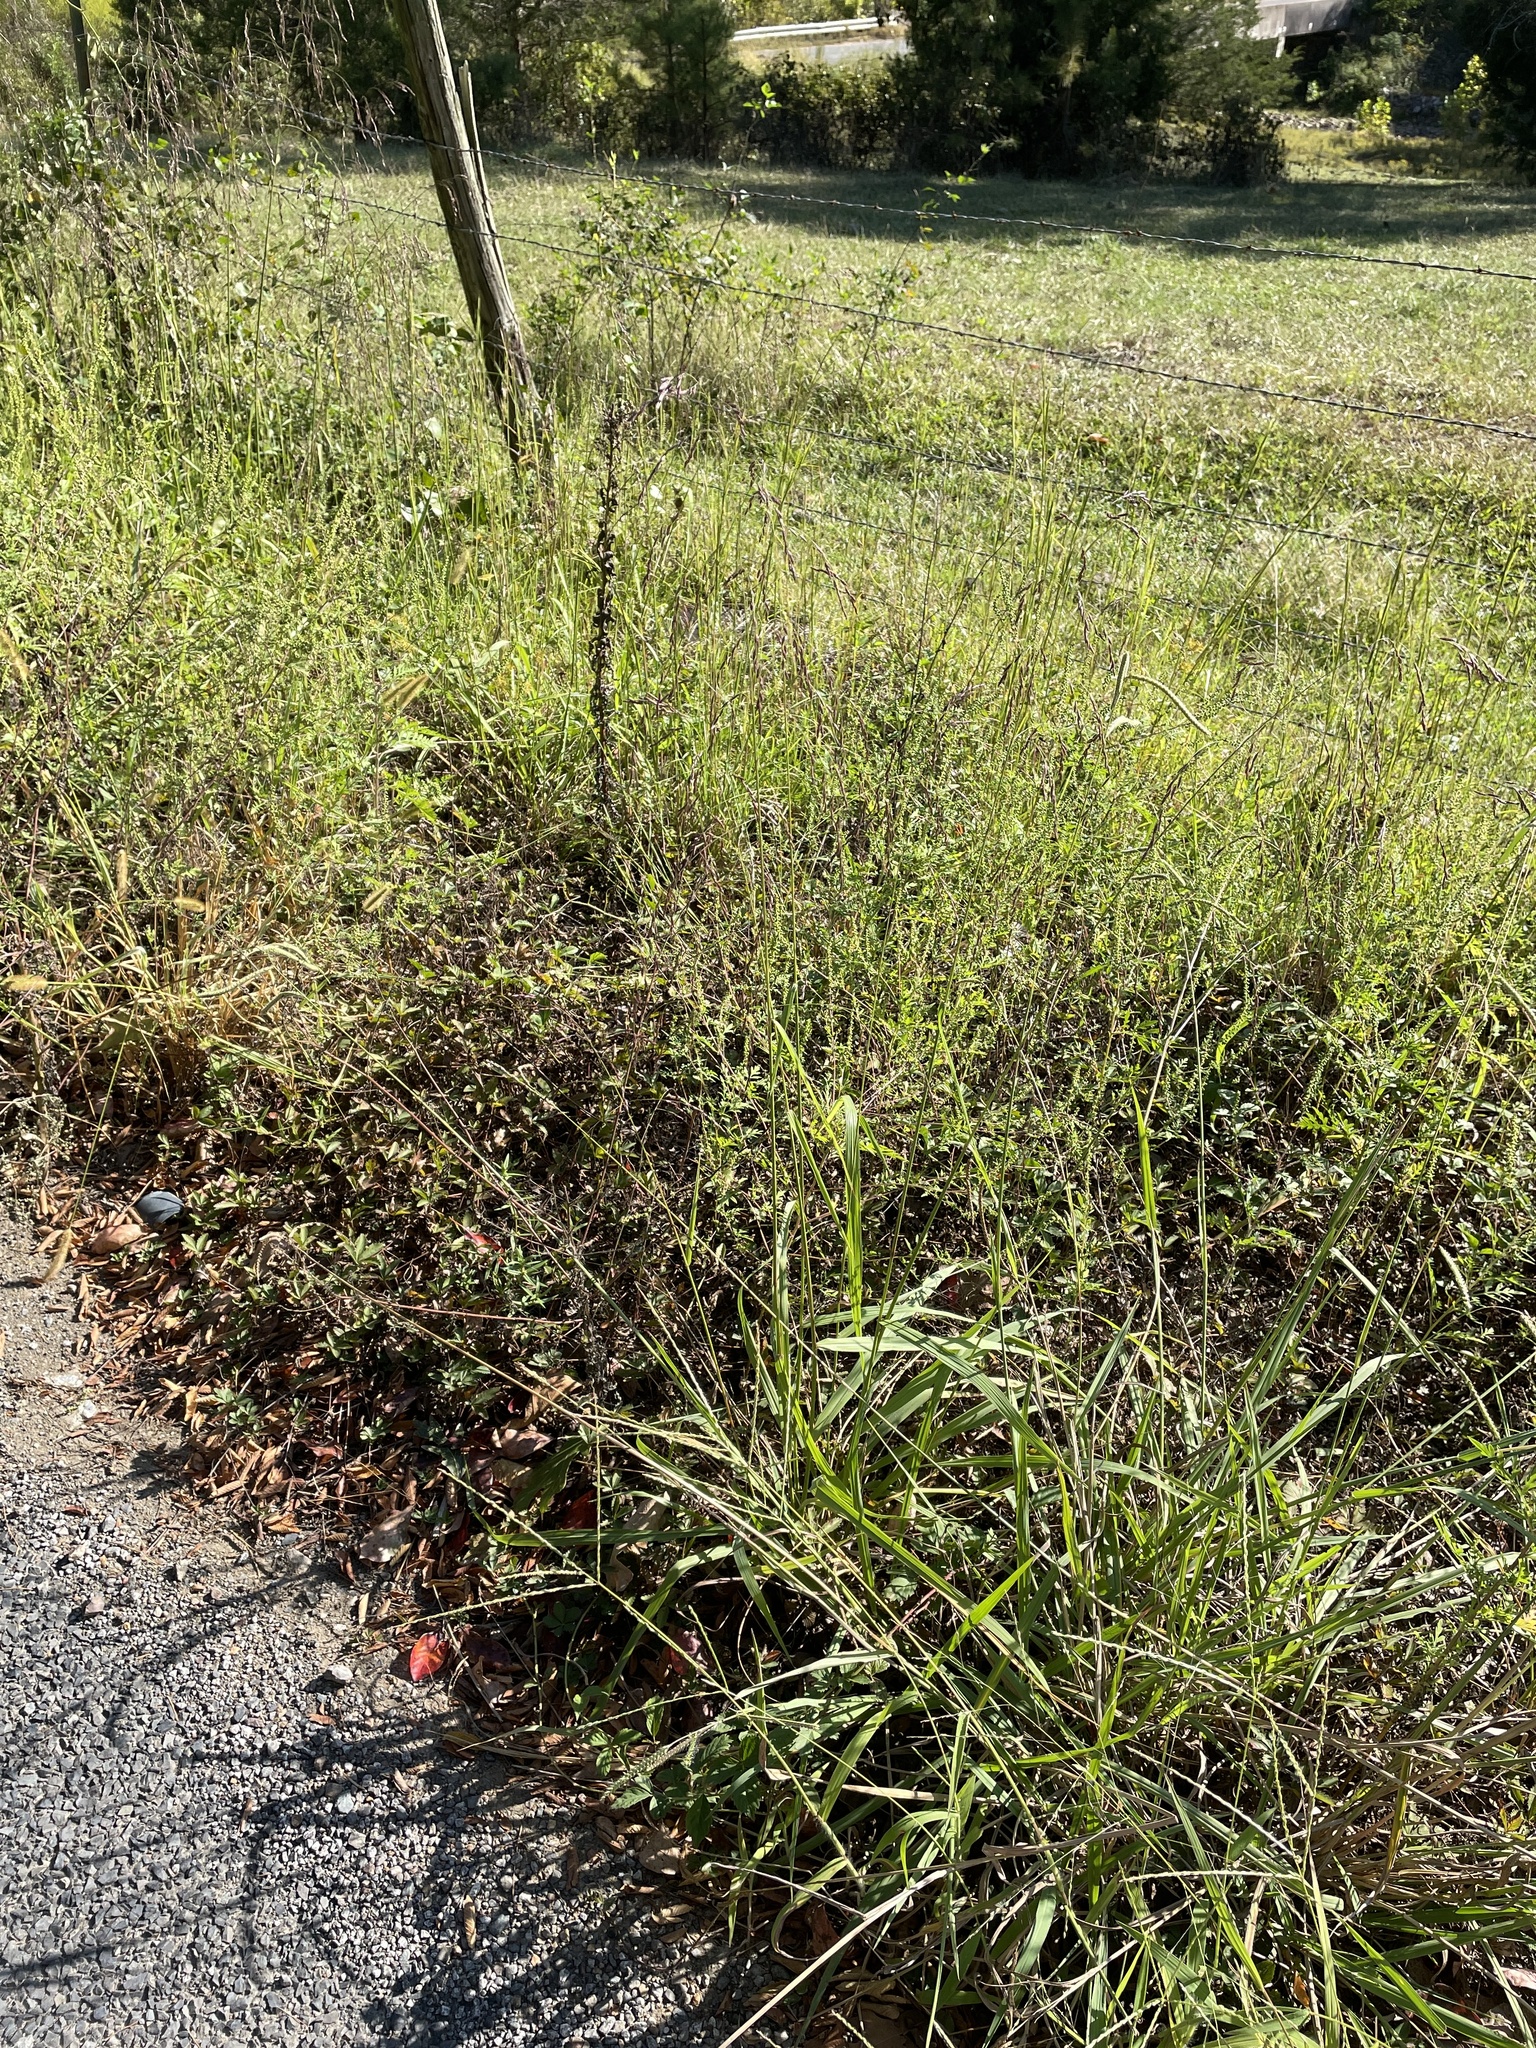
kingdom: Plantae
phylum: Tracheophyta
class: Liliopsida
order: Poales
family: Poaceae
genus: Tridens
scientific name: Tridens flavus
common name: Purpletop
